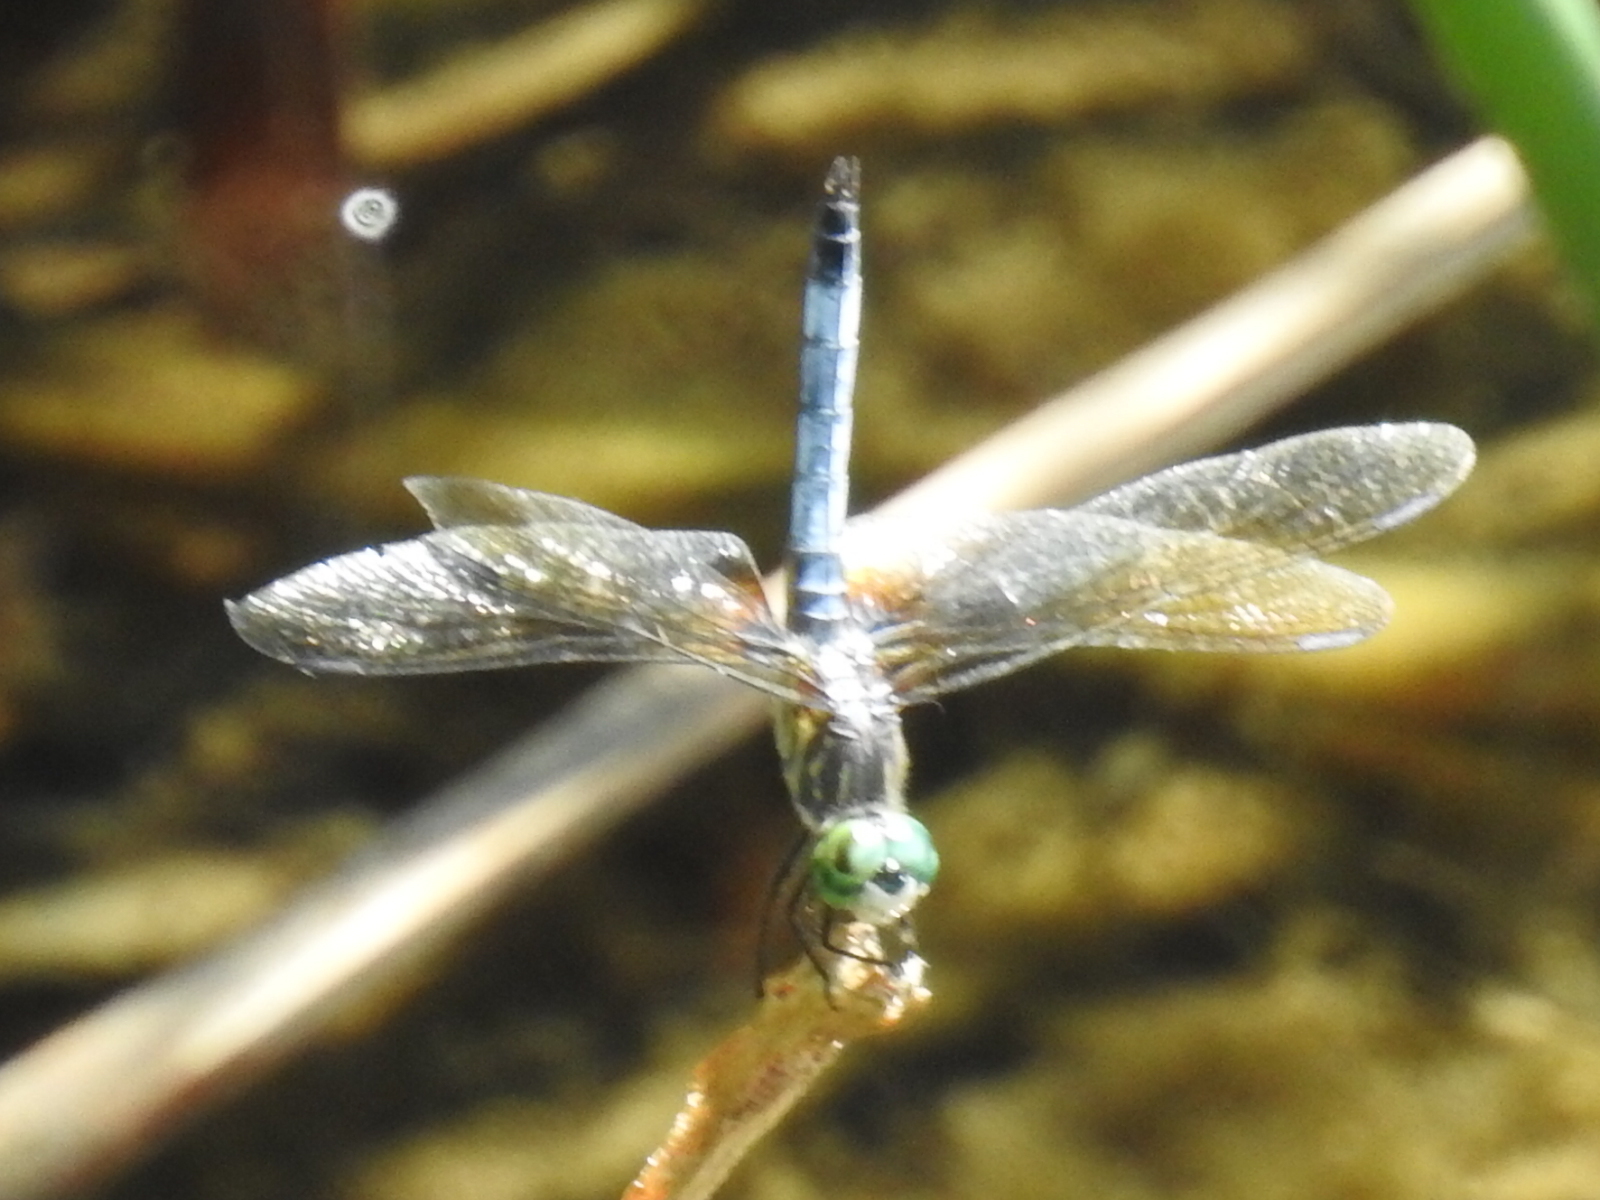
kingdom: Animalia
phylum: Arthropoda
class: Insecta
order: Odonata
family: Libellulidae
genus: Pachydiplax
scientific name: Pachydiplax longipennis
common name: Blue dasher
